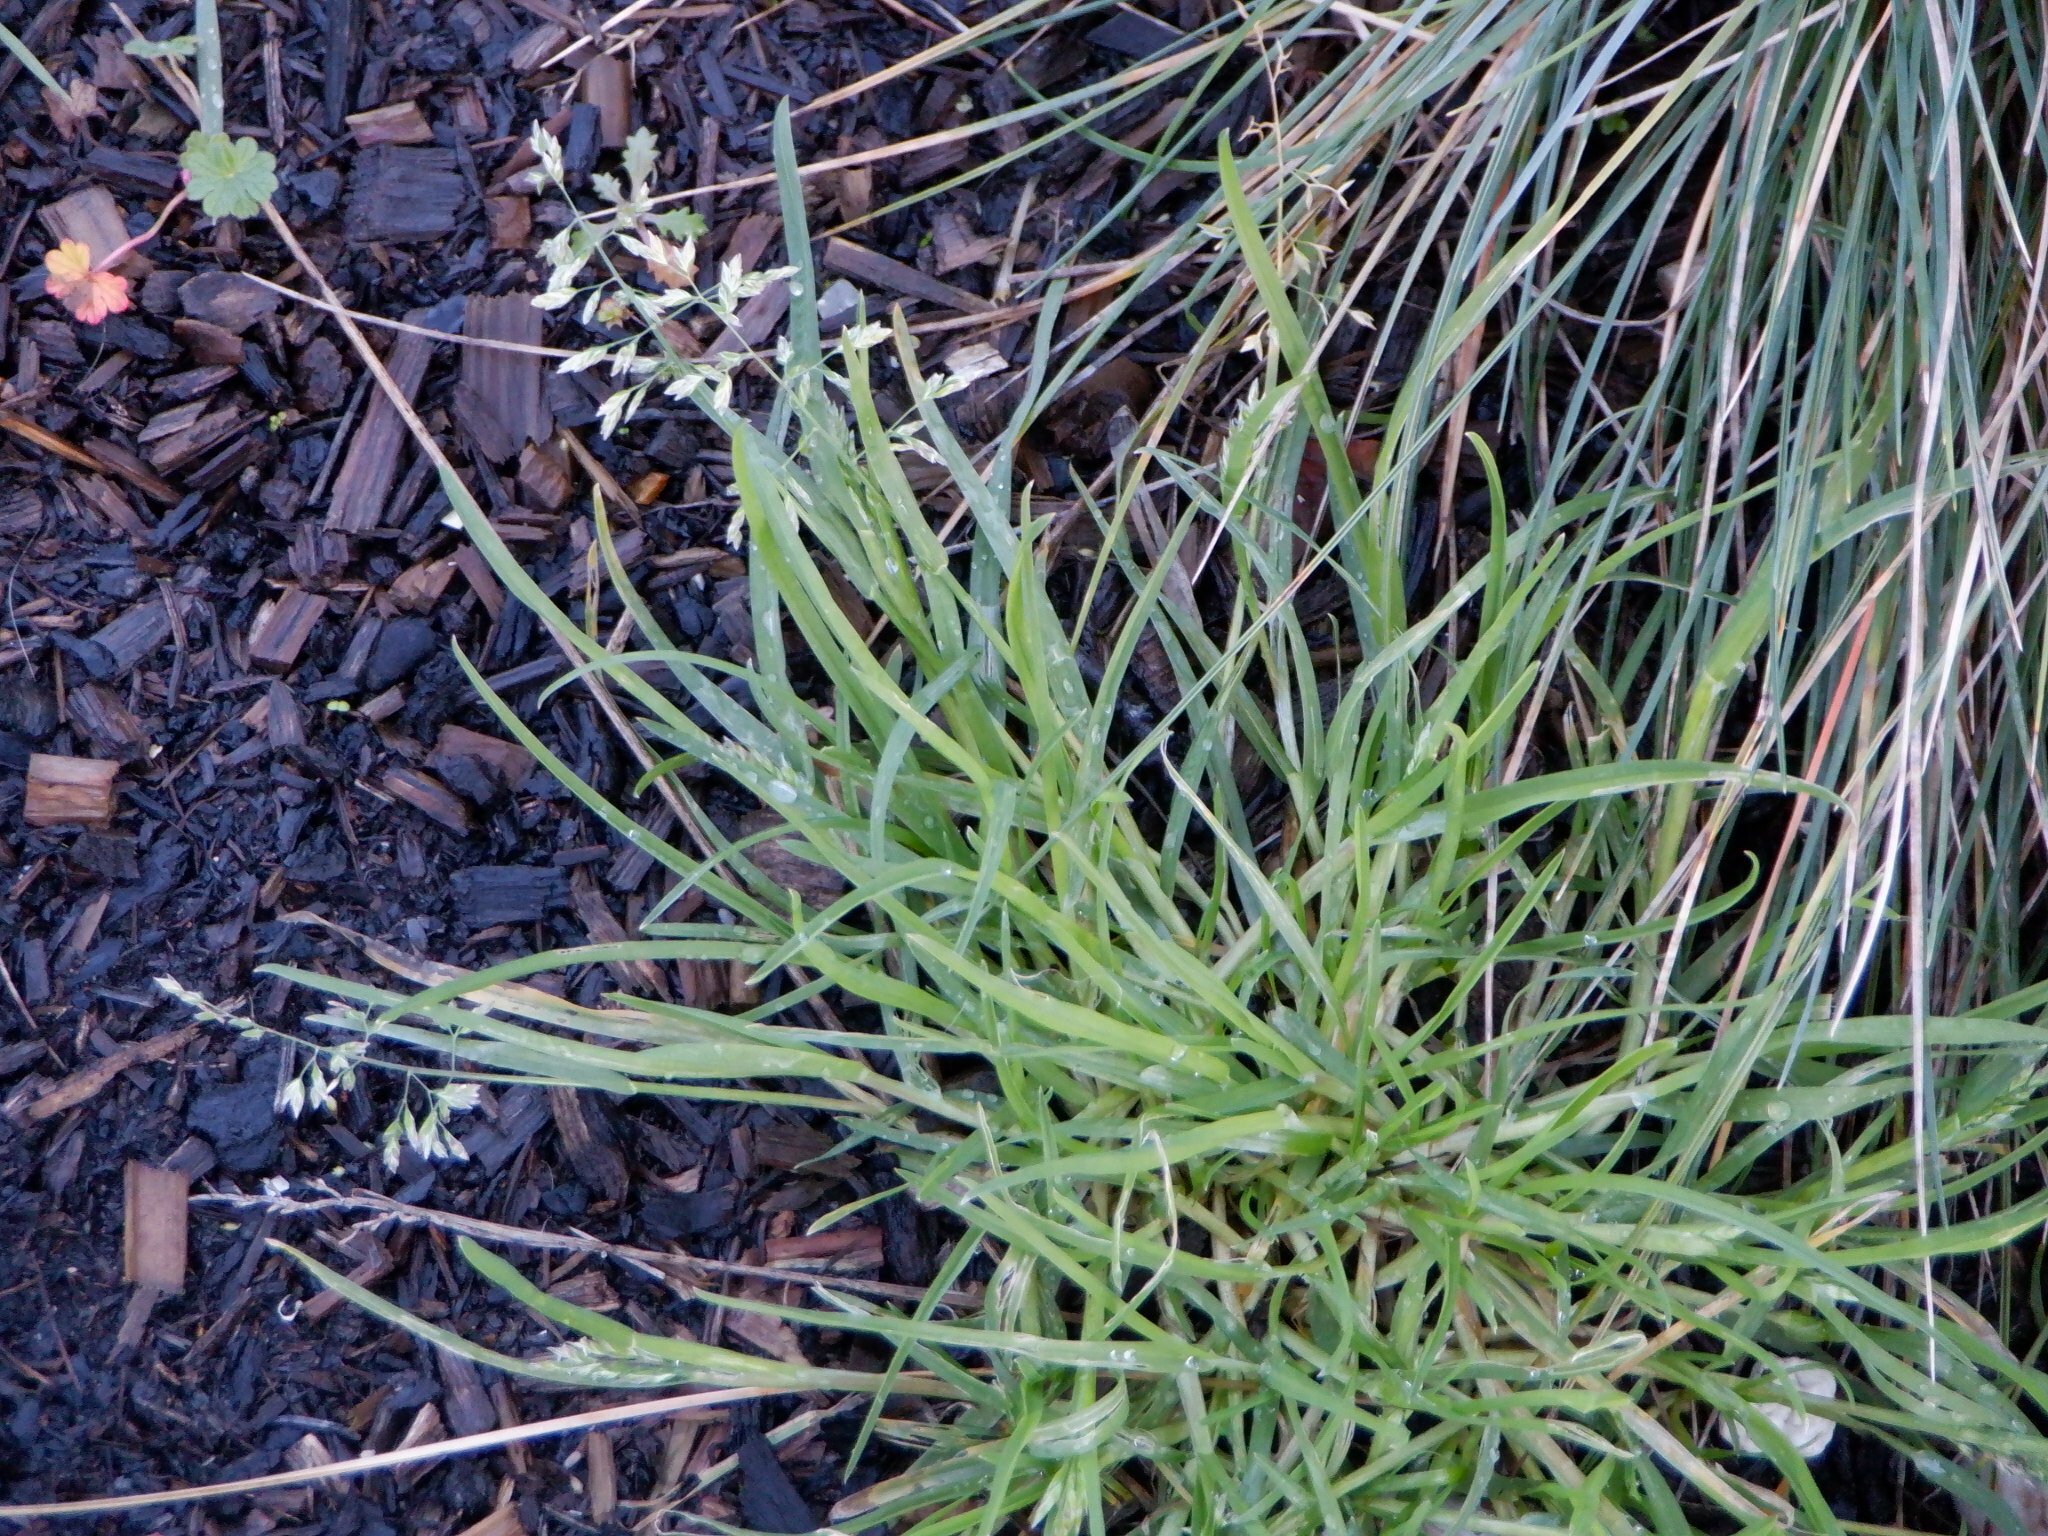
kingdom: Plantae
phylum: Tracheophyta
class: Liliopsida
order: Poales
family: Poaceae
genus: Poa
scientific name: Poa annua
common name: Annual bluegrass
